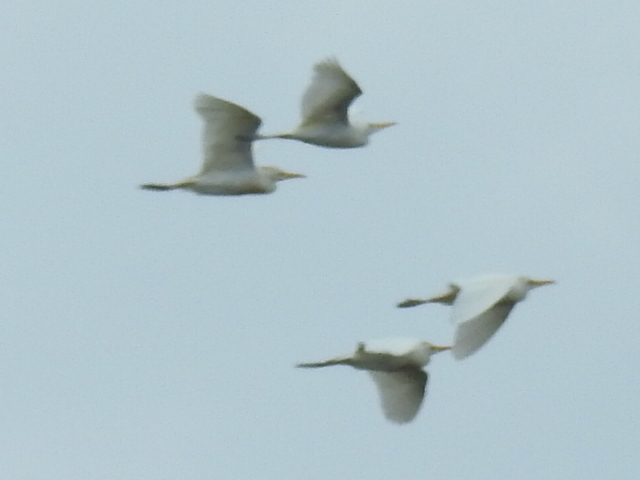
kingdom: Animalia
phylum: Chordata
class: Aves
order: Pelecaniformes
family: Ardeidae
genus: Bubulcus
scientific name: Bubulcus ibis
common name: Cattle egret
